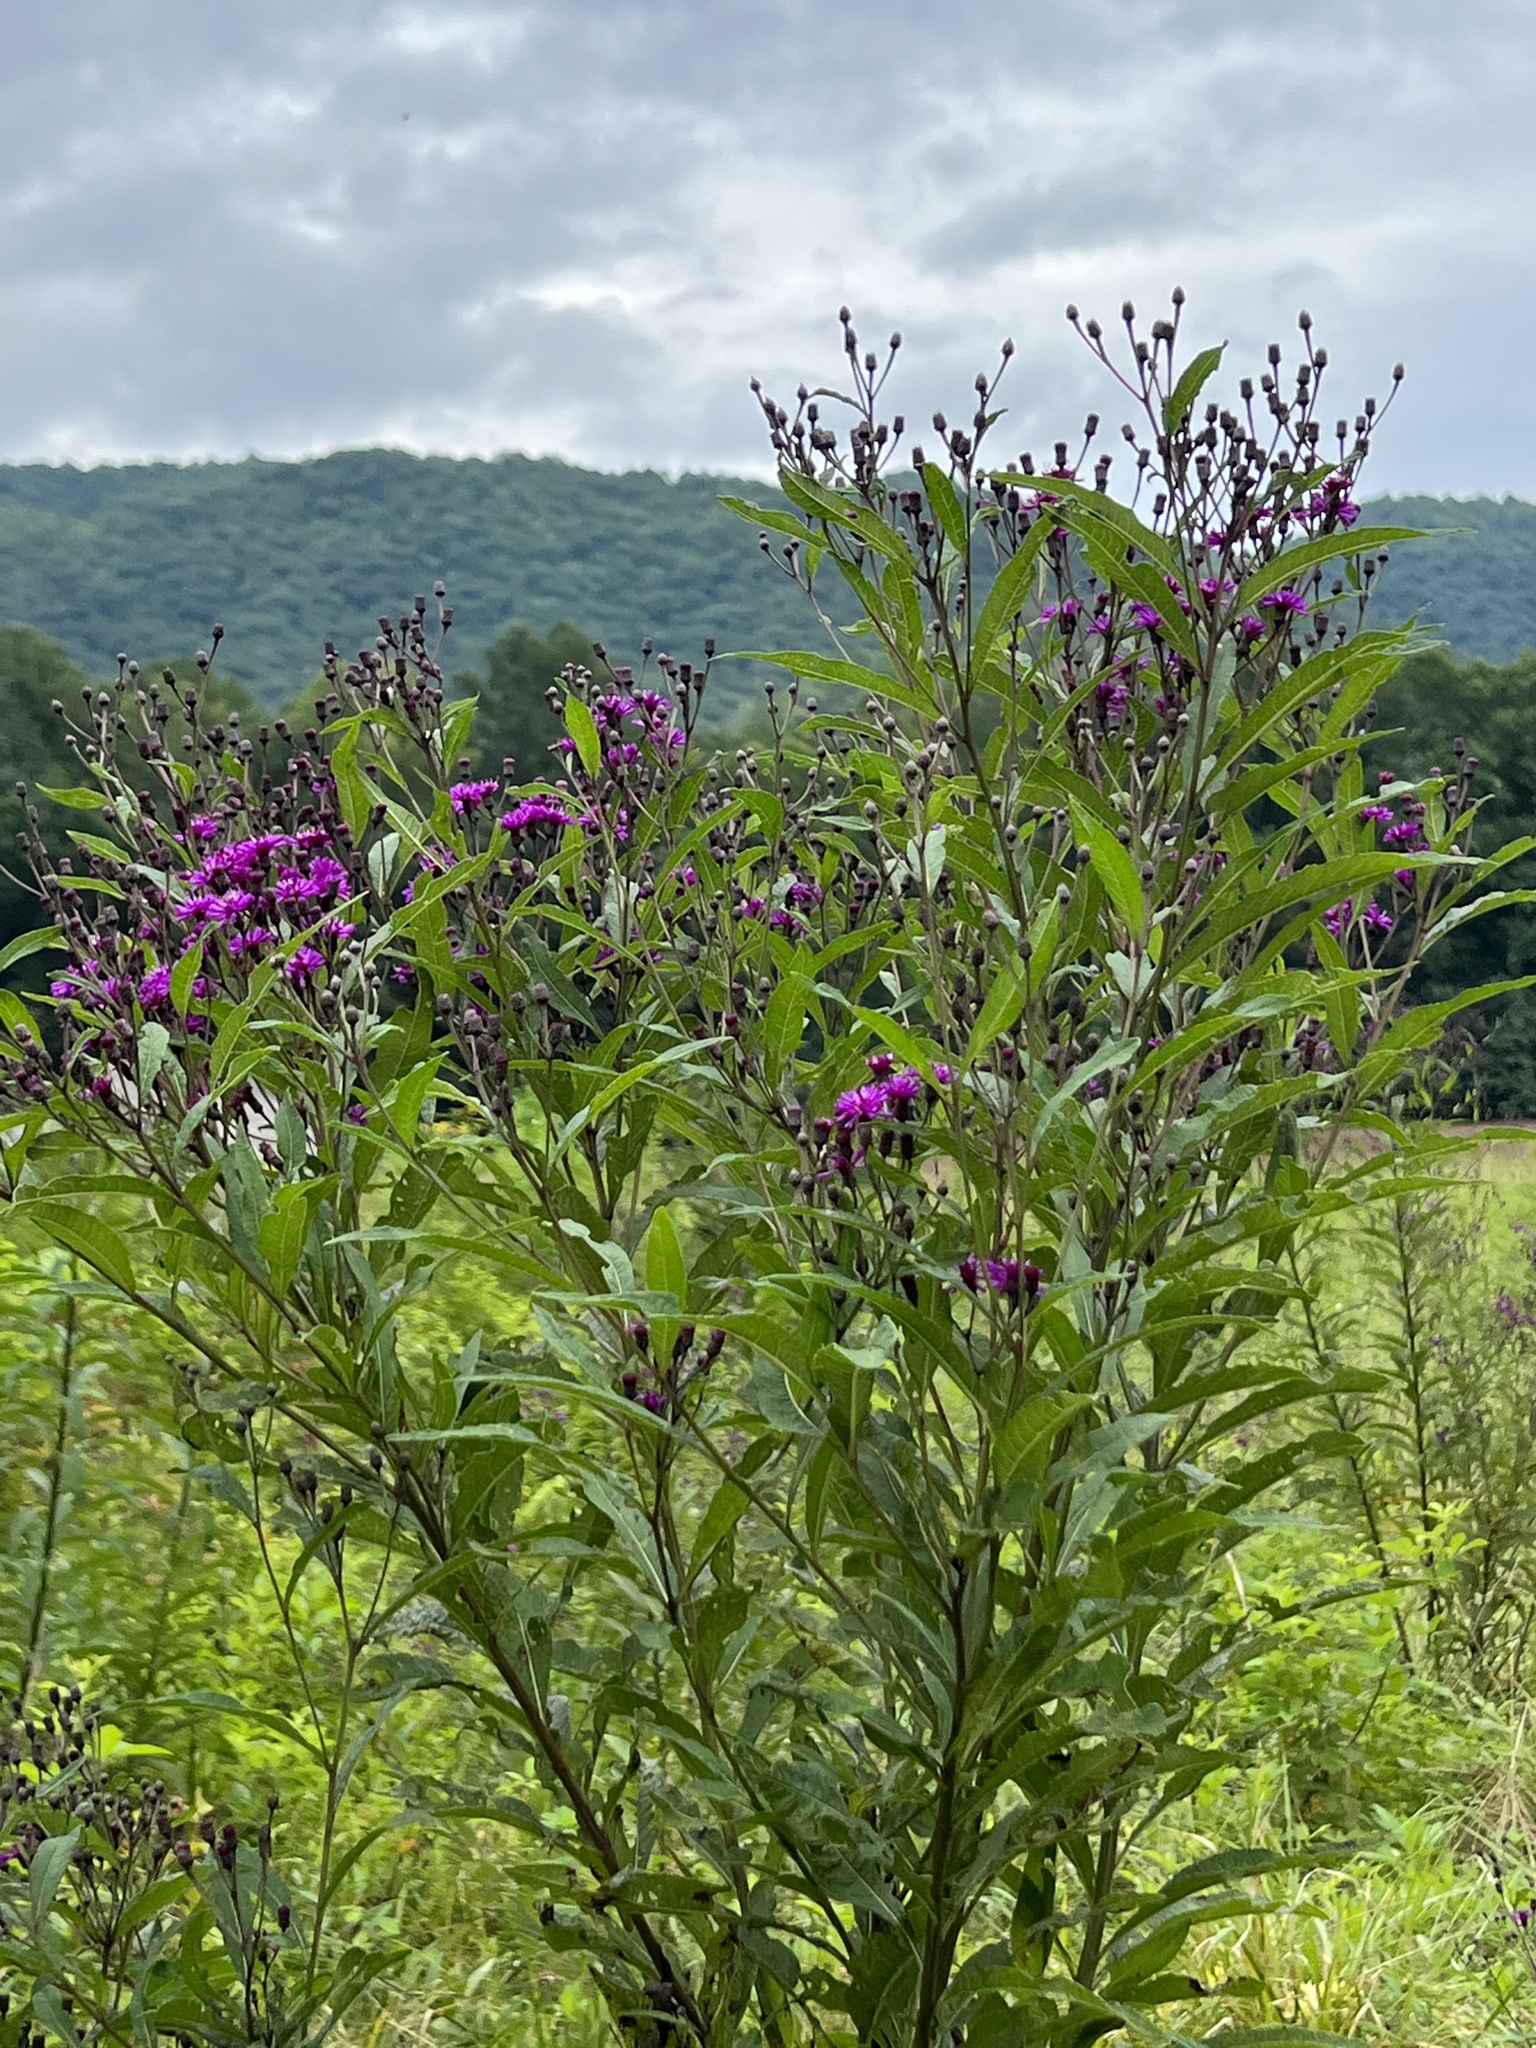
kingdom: Plantae
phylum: Tracheophyta
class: Magnoliopsida
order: Asterales
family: Asteraceae
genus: Vernonia
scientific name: Vernonia noveboracensis
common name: New york ironweed
